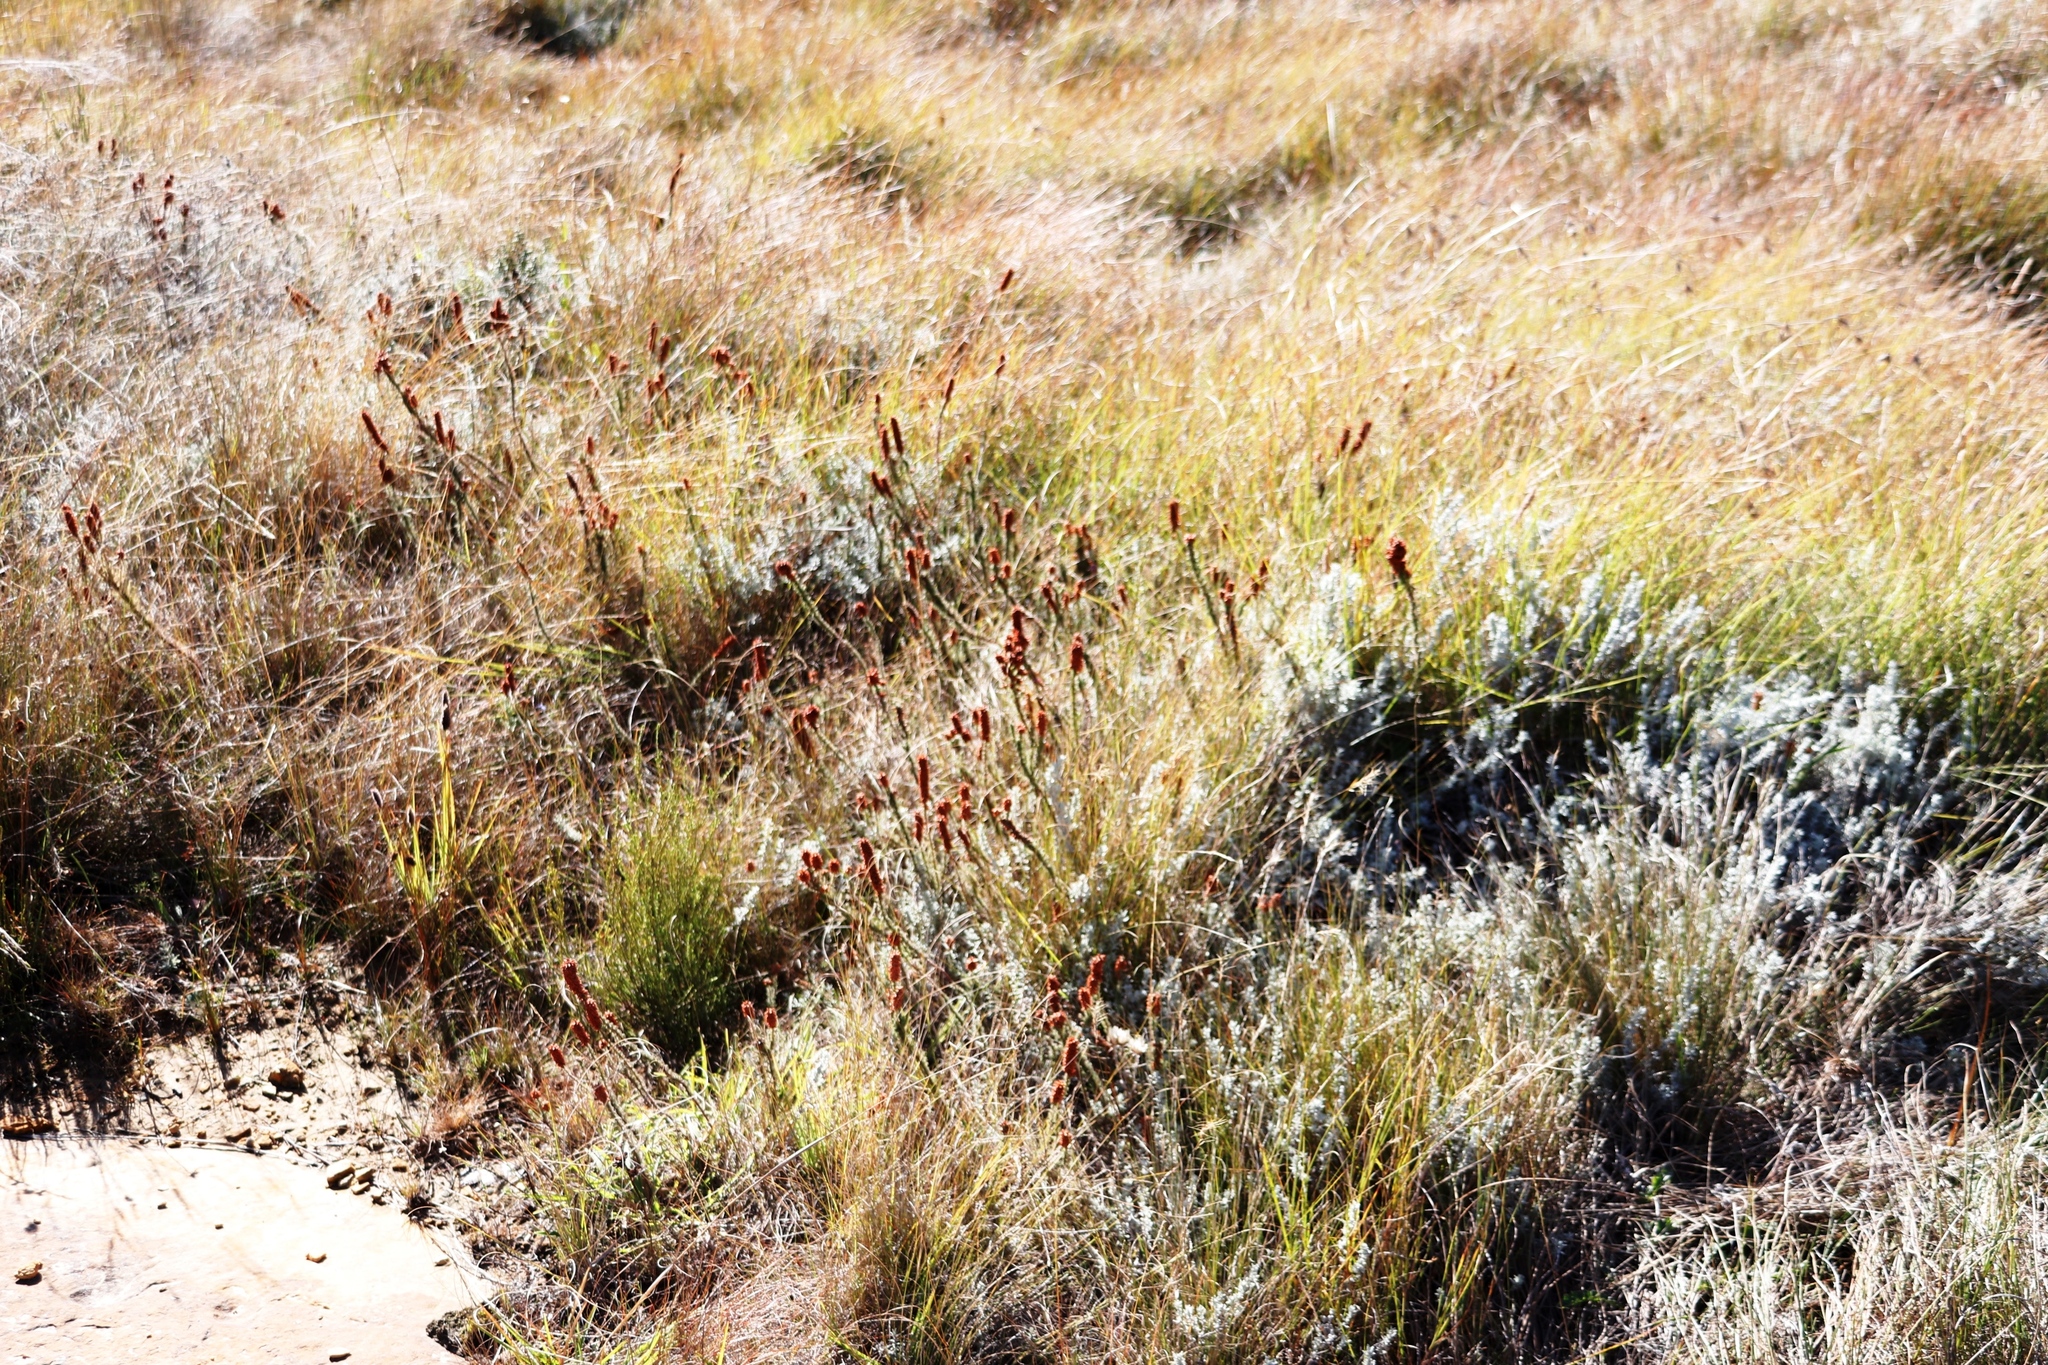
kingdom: Plantae
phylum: Tracheophyta
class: Magnoliopsida
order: Ericales
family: Ericaceae
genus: Erica
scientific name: Erica alopecurus
